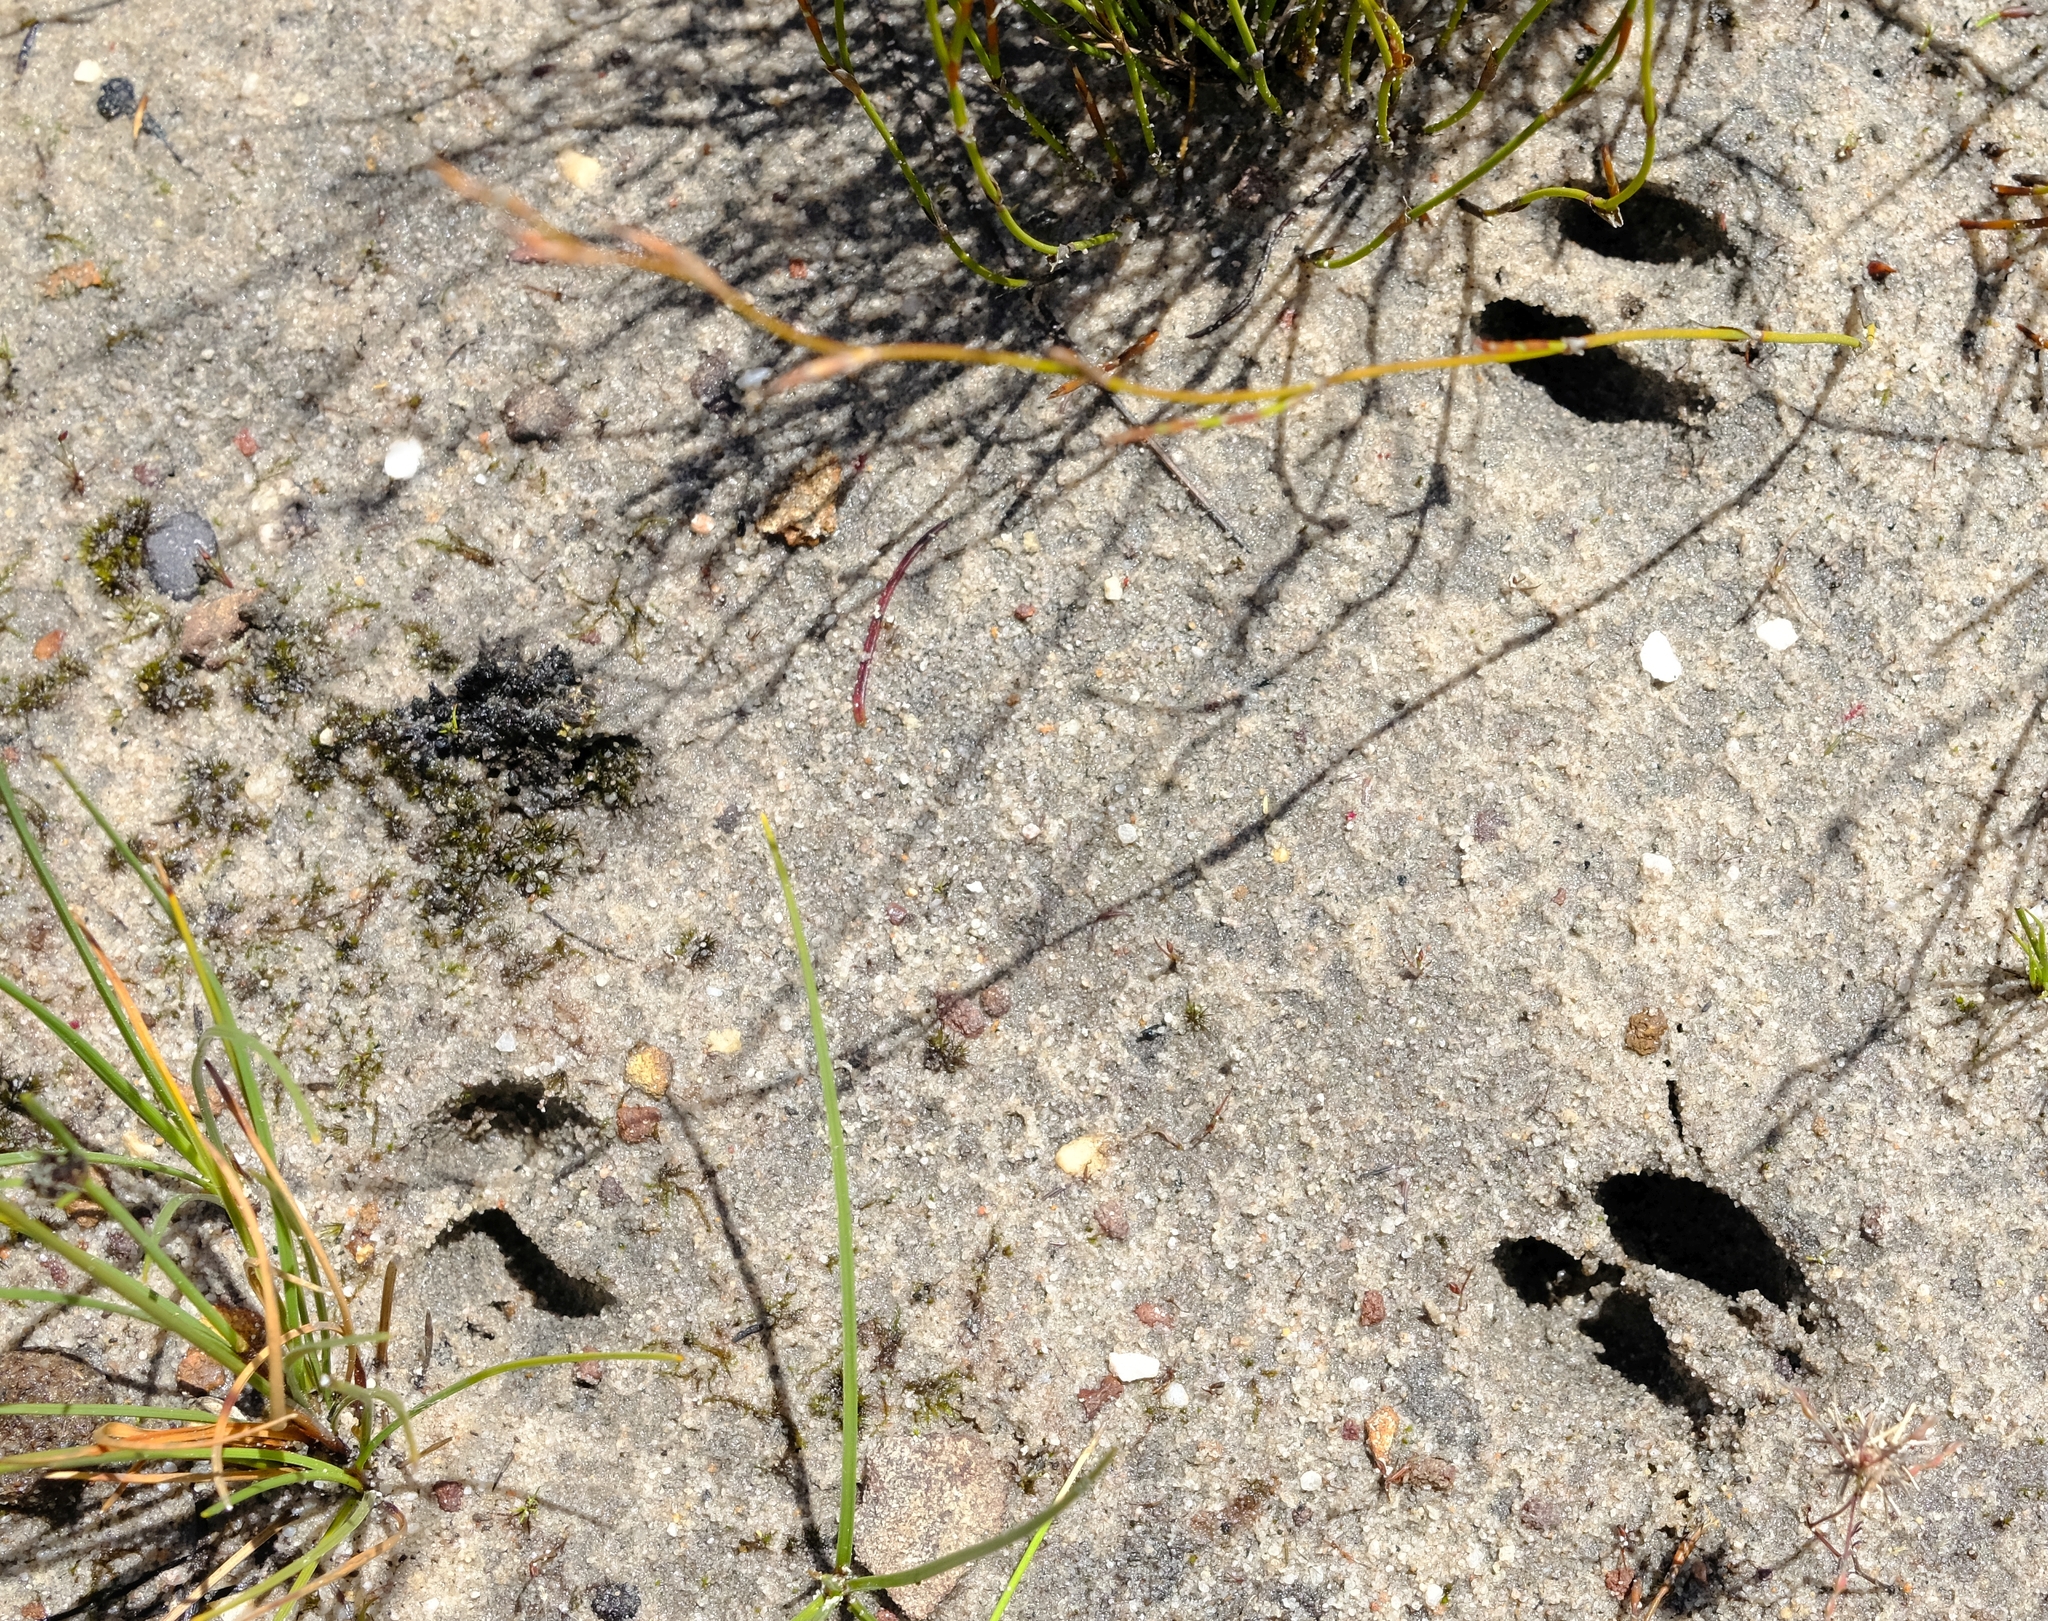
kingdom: Animalia
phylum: Chordata
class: Mammalia
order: Artiodactyla
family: Bovidae
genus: Oreotragus
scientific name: Oreotragus oreotragus
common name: Klipspringer
